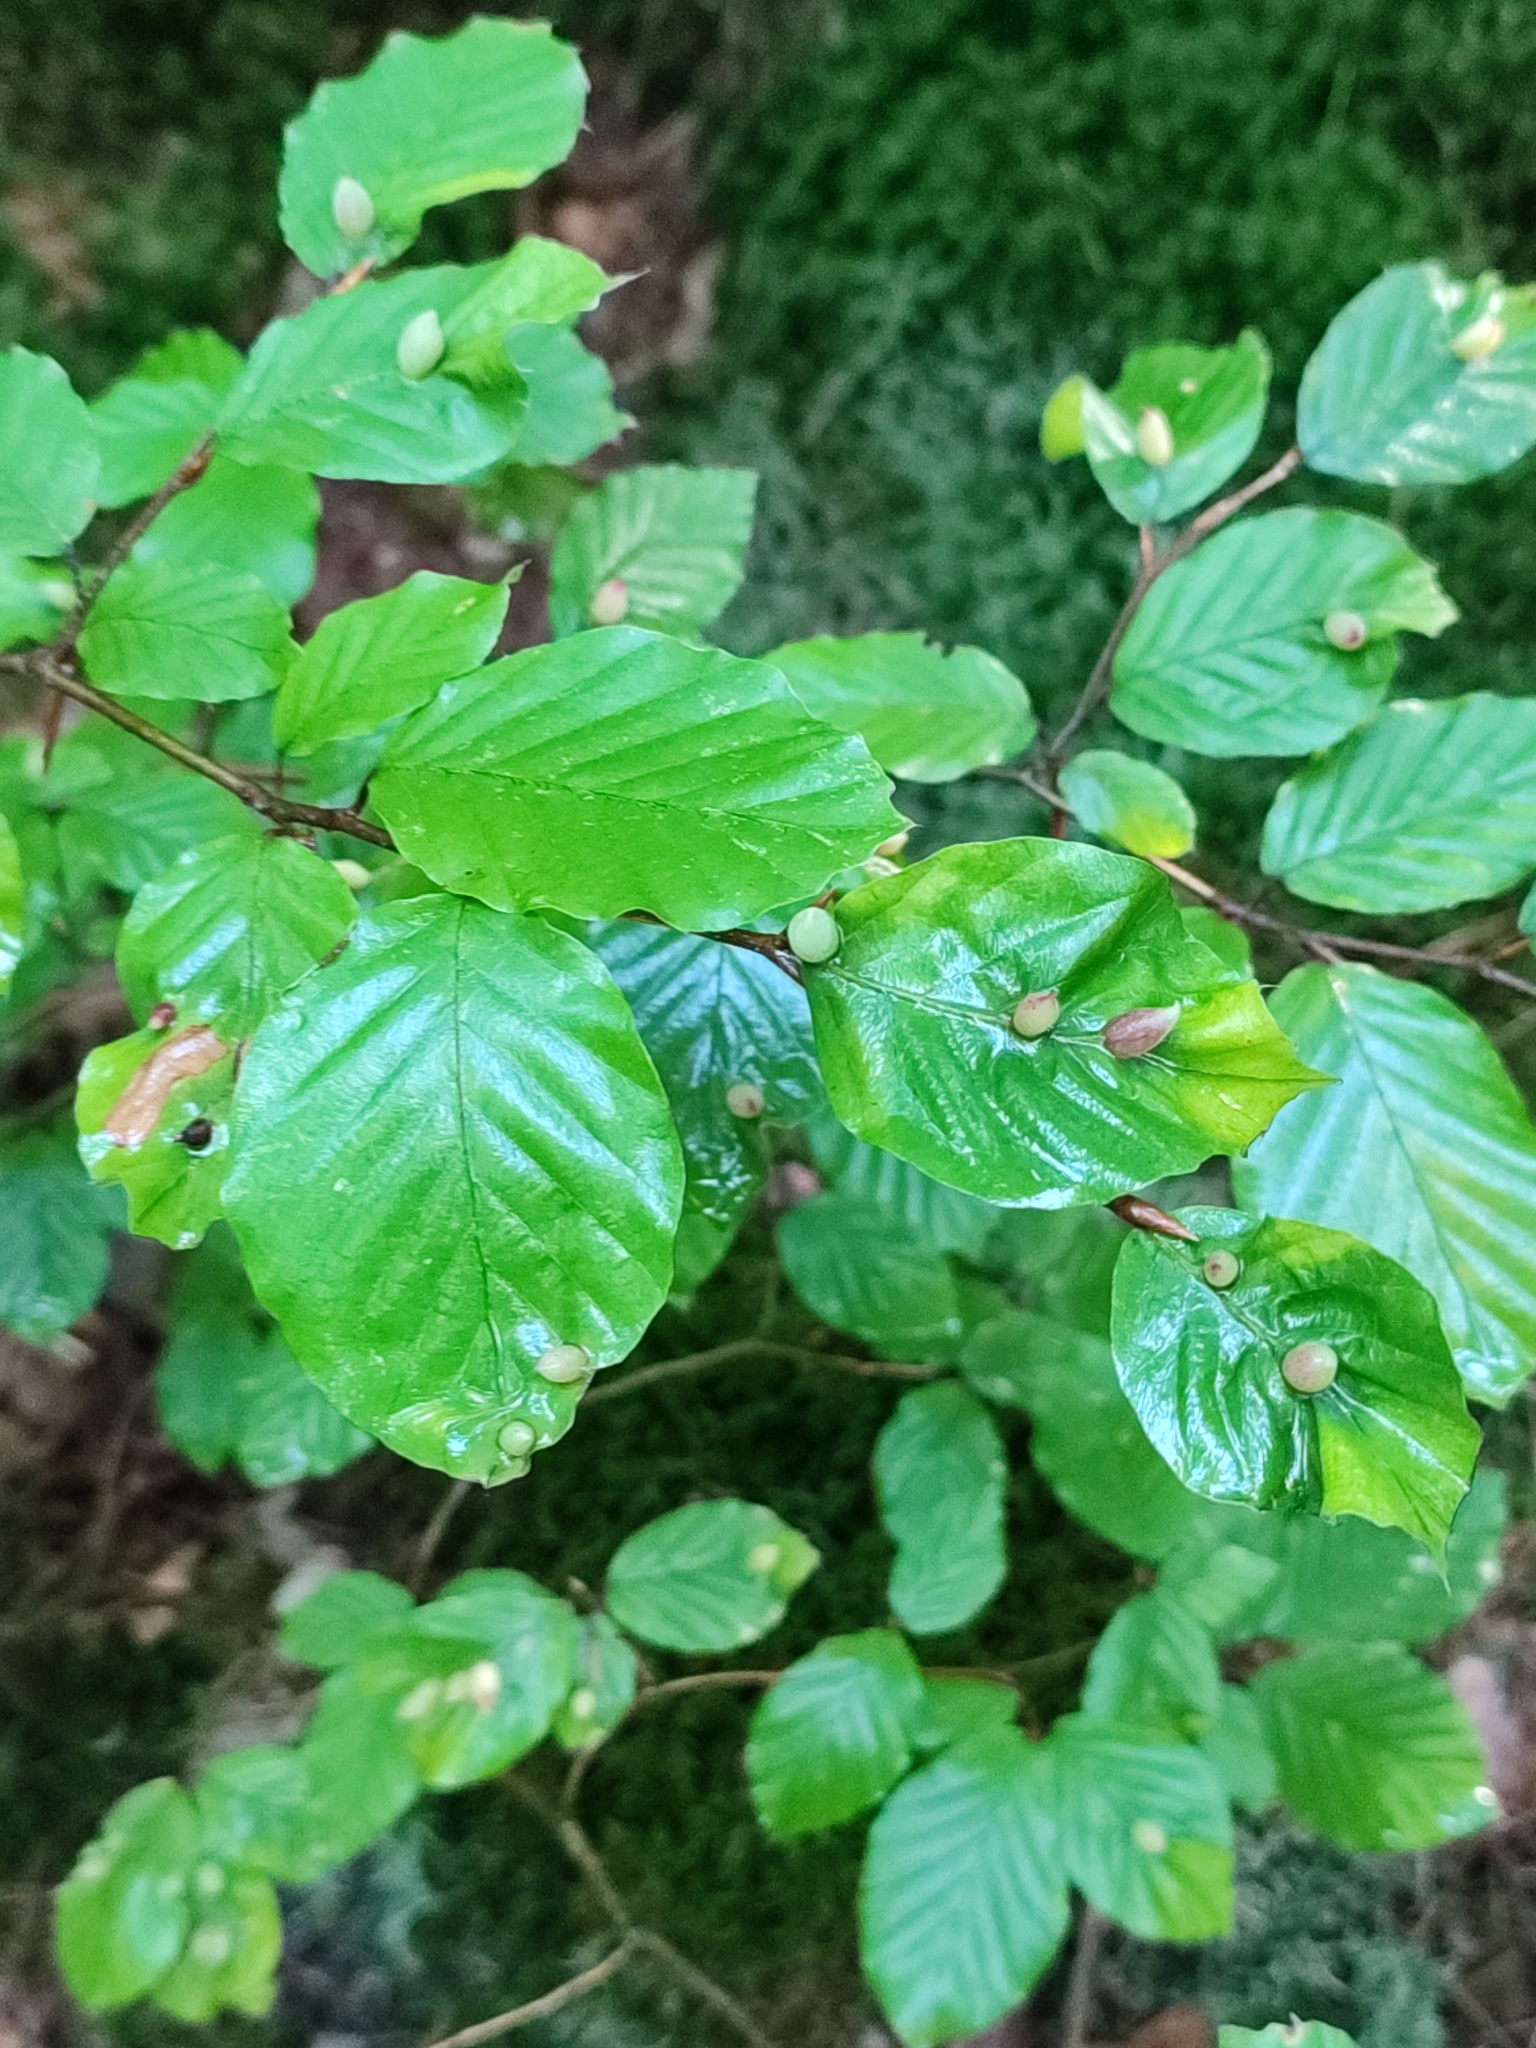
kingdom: Plantae
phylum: Tracheophyta
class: Magnoliopsida
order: Fagales
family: Fagaceae
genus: Fagus
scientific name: Fagus sylvatica
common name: Beech
